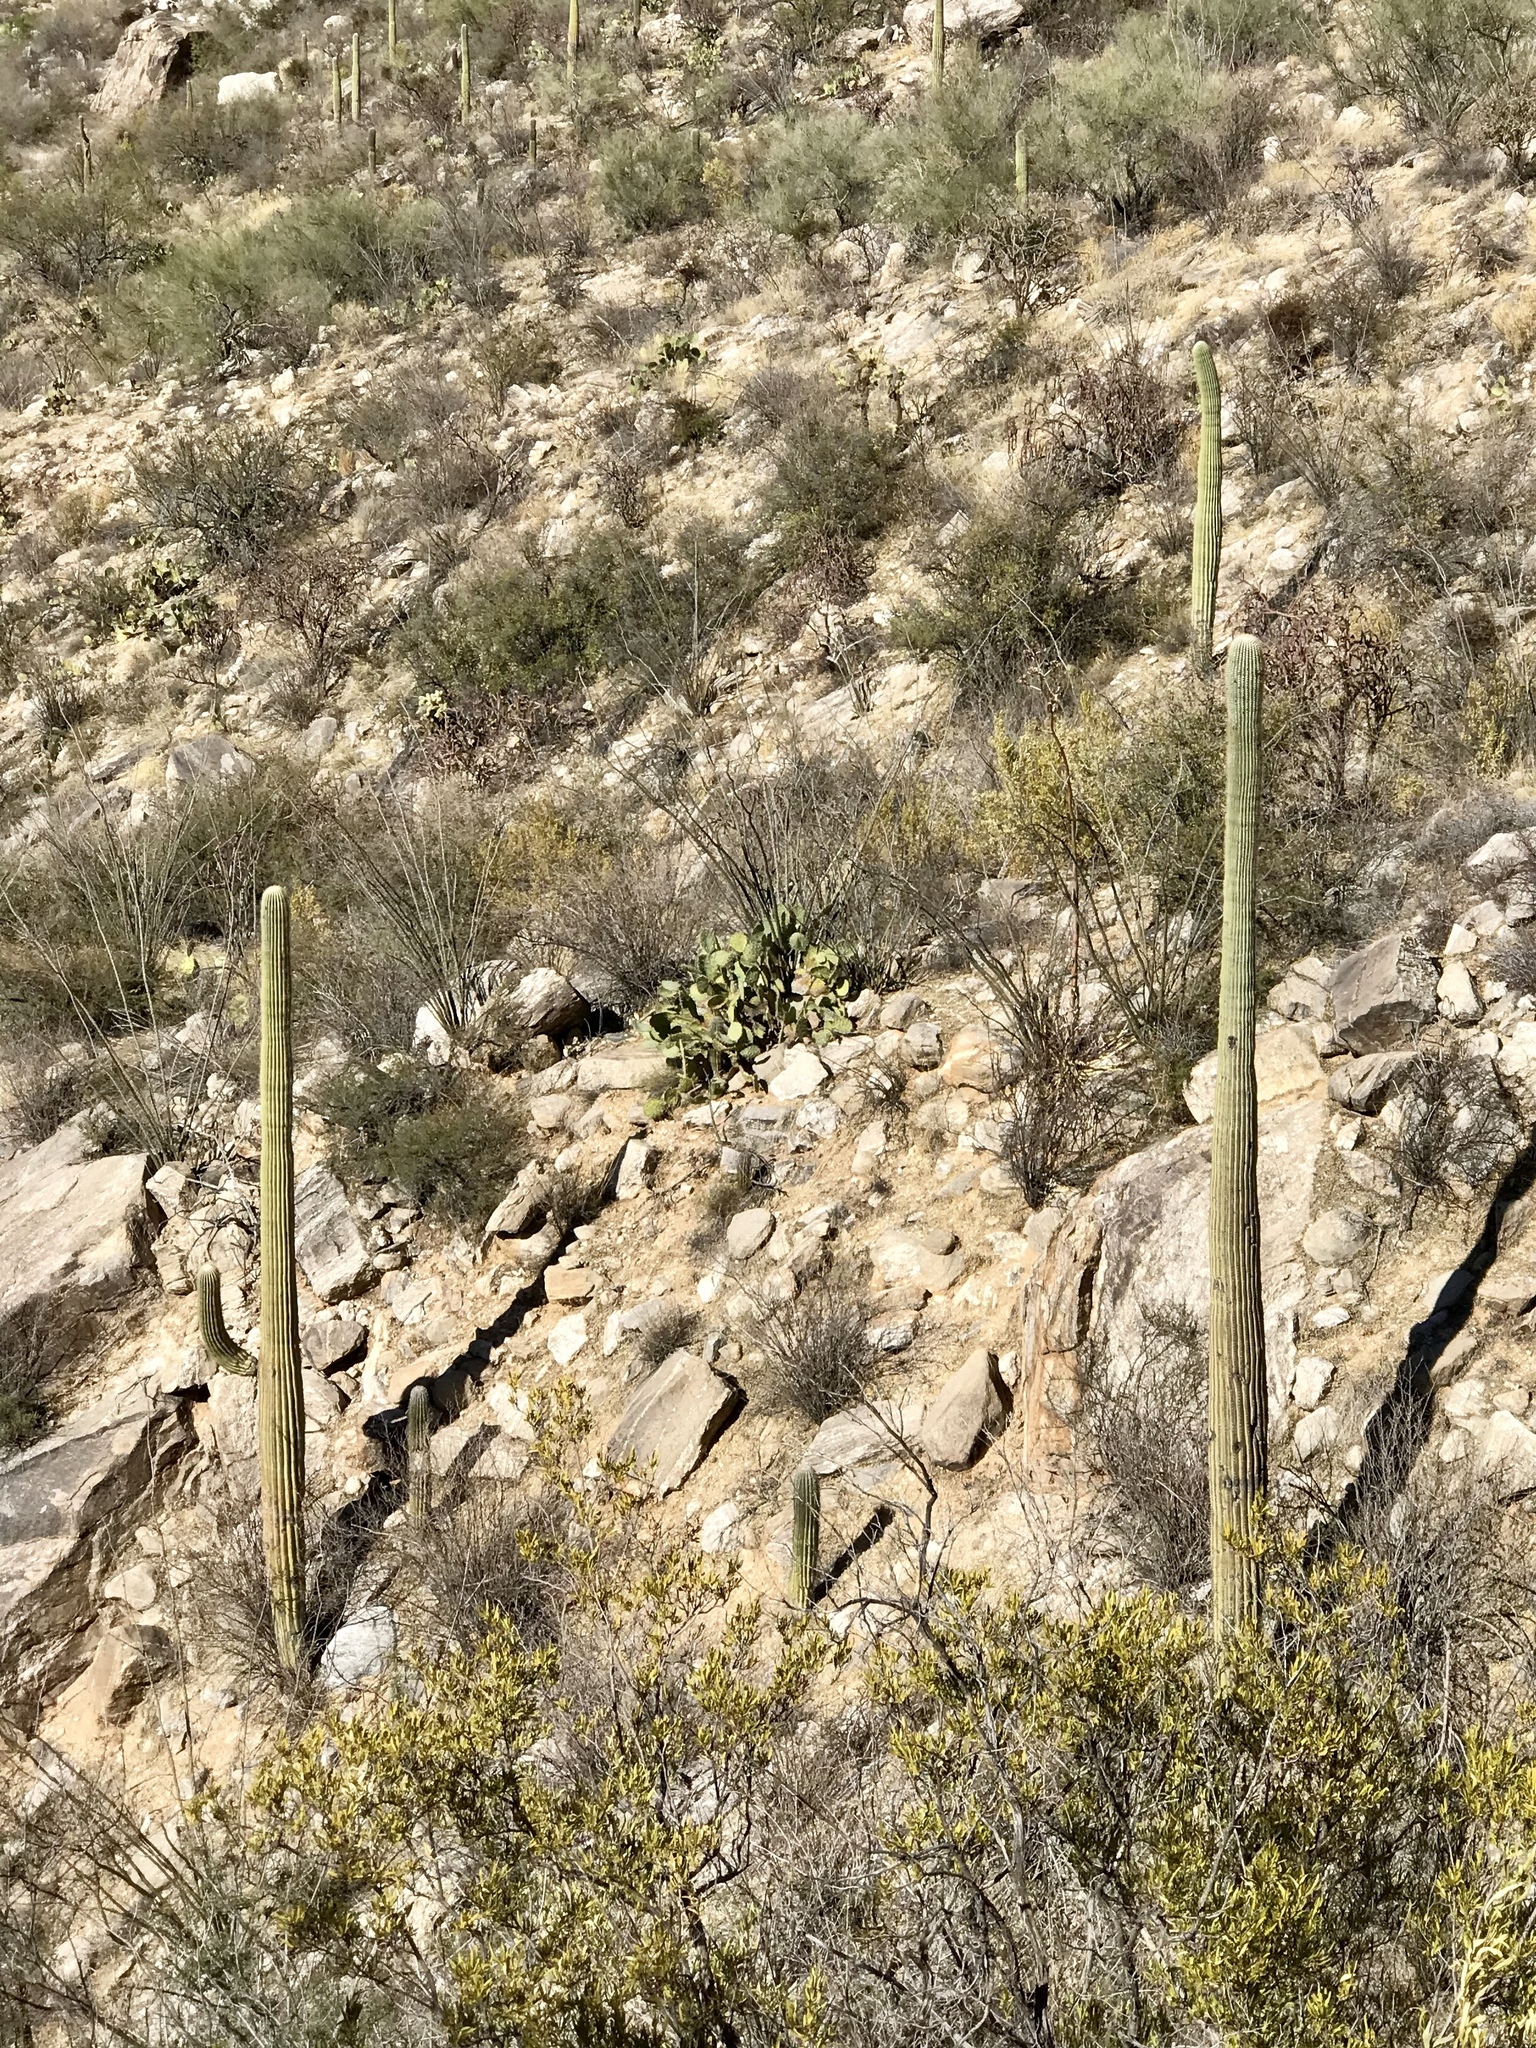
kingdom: Plantae
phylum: Tracheophyta
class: Magnoliopsida
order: Caryophyllales
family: Cactaceae
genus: Carnegiea
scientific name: Carnegiea gigantea
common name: Saguaro
